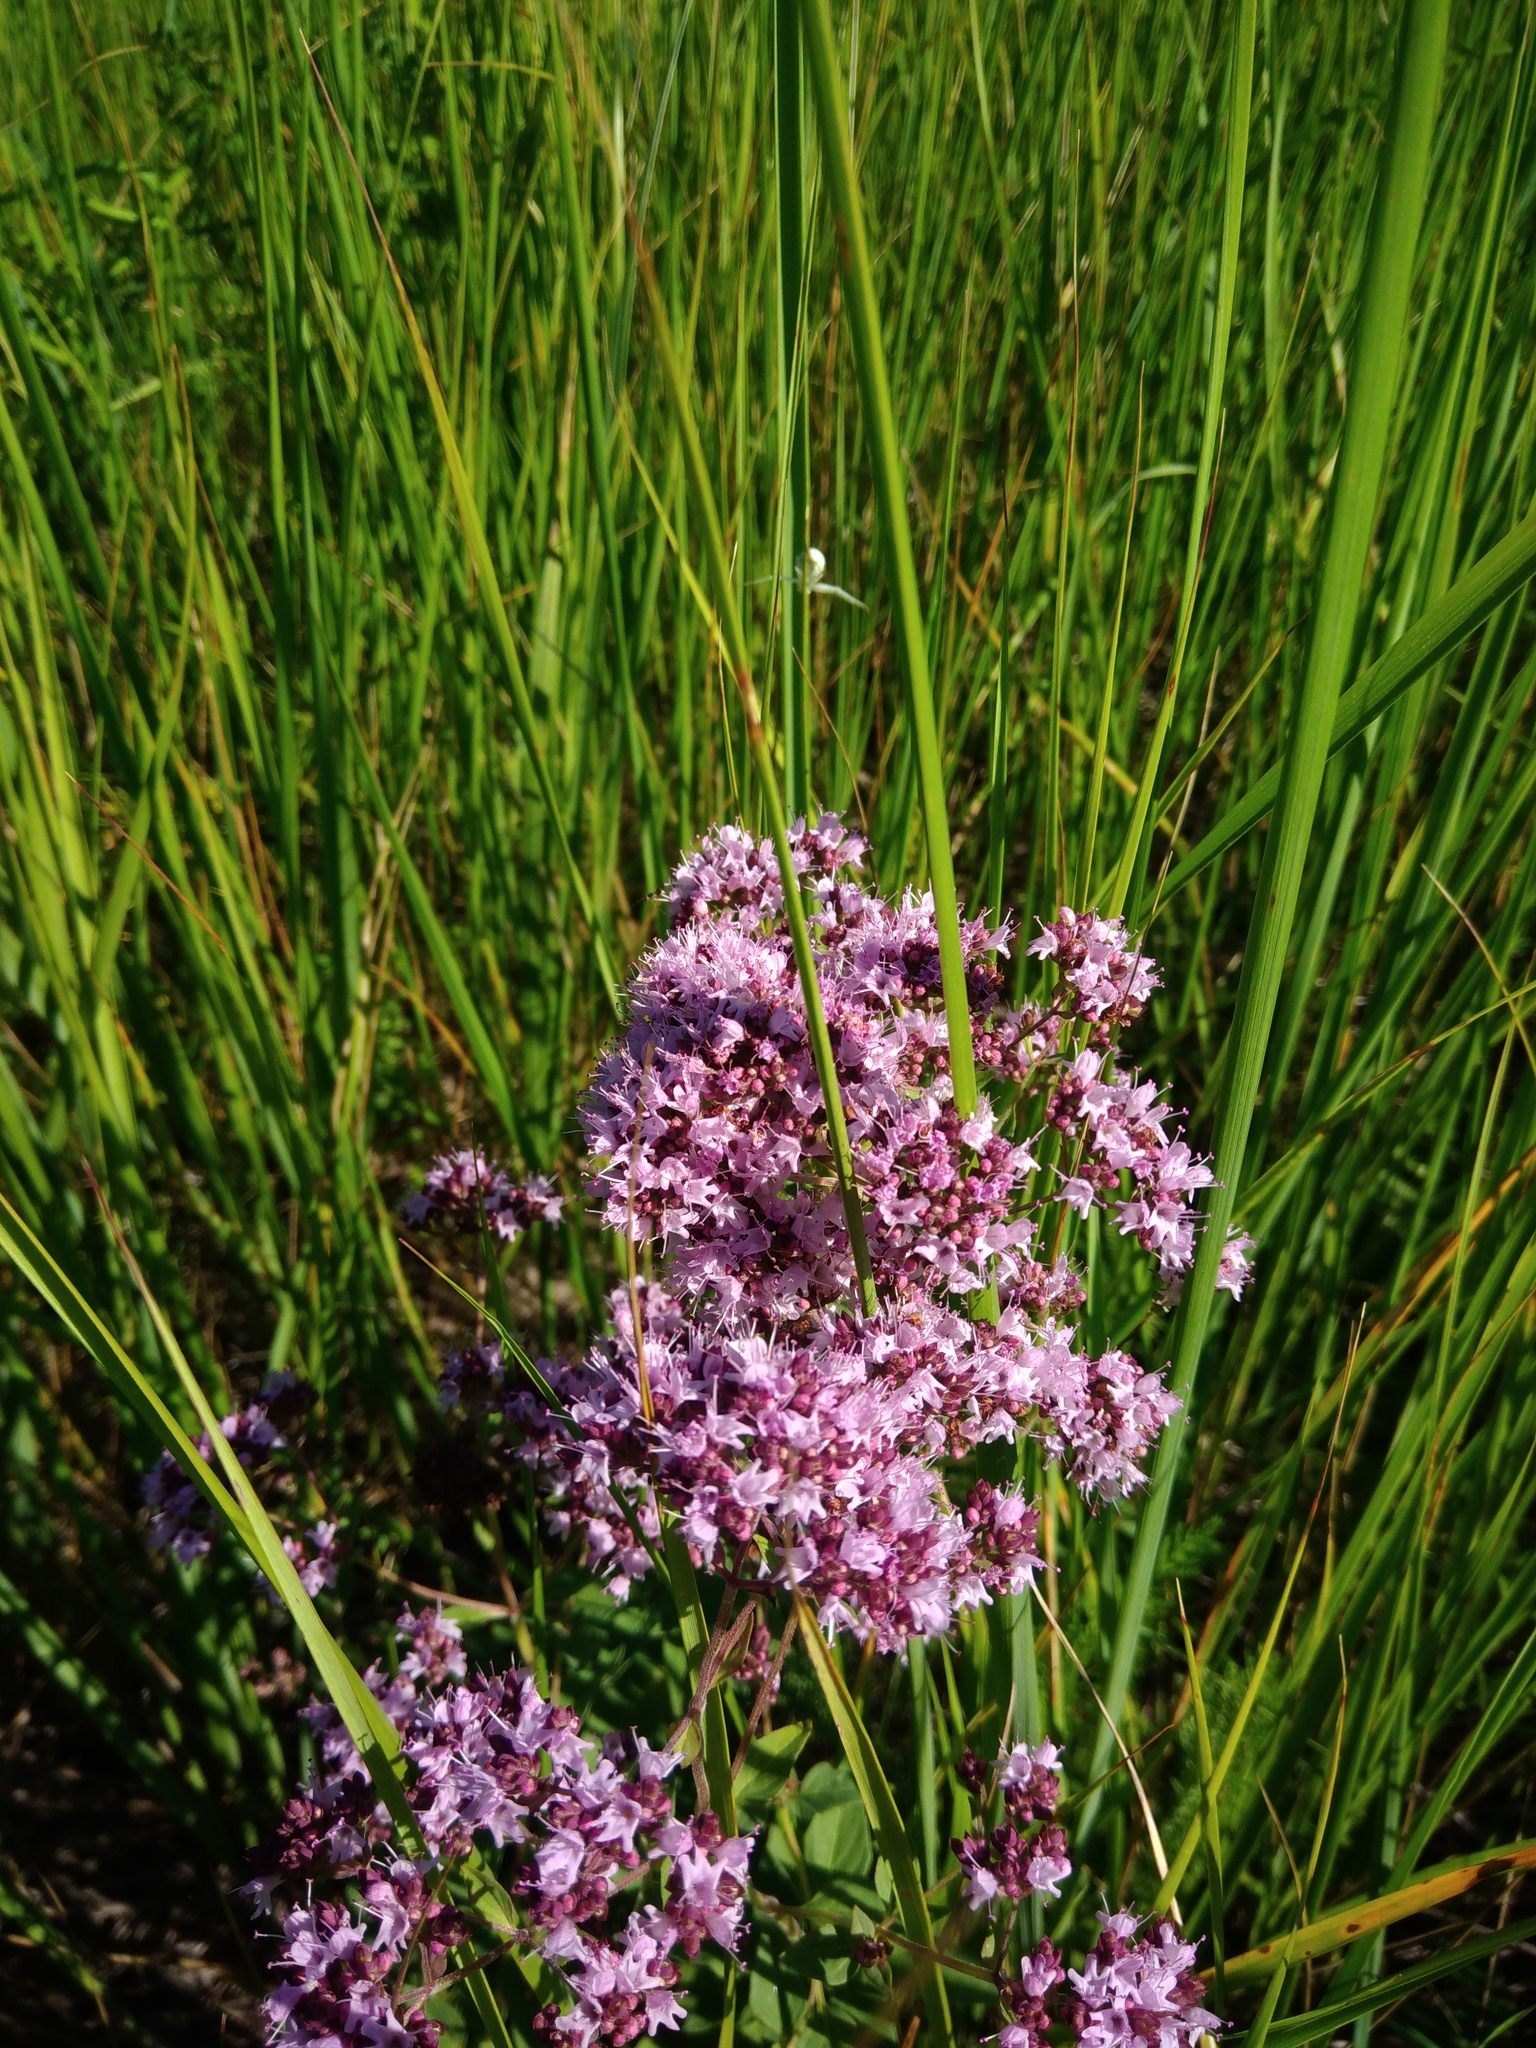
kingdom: Plantae
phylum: Tracheophyta
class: Magnoliopsida
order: Lamiales
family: Lamiaceae
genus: Origanum
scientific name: Origanum vulgare
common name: Wild marjoram
